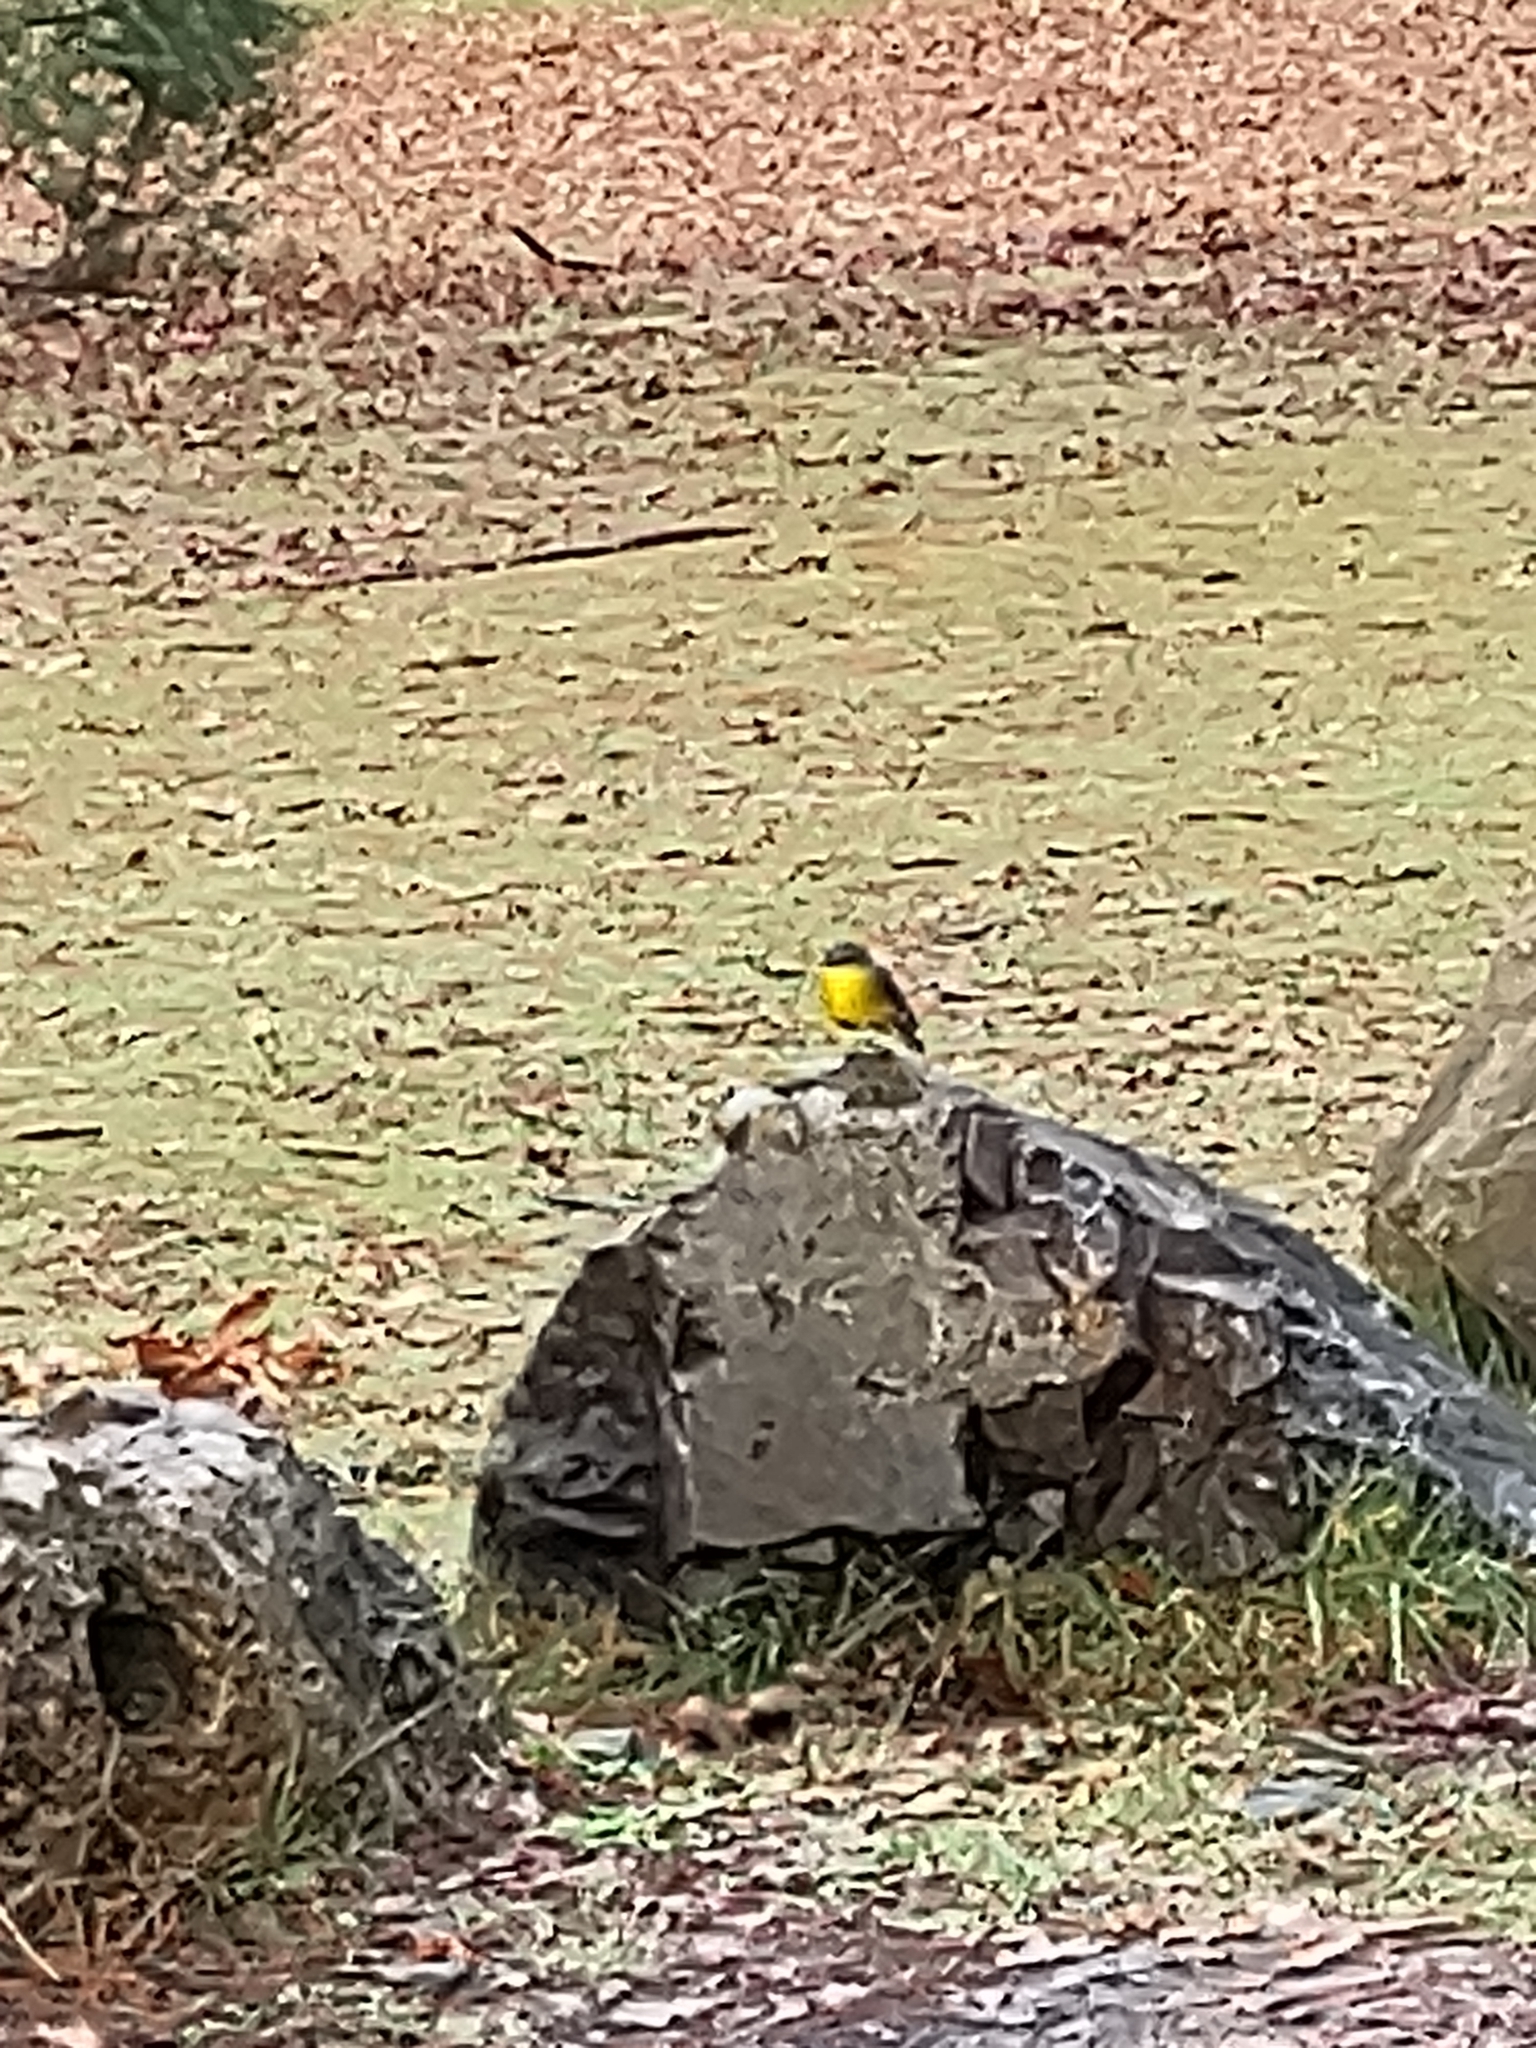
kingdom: Animalia
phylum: Chordata
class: Aves
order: Passeriformes
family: Petroicidae
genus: Eopsaltria
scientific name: Eopsaltria australis
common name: Eastern yellow robin
